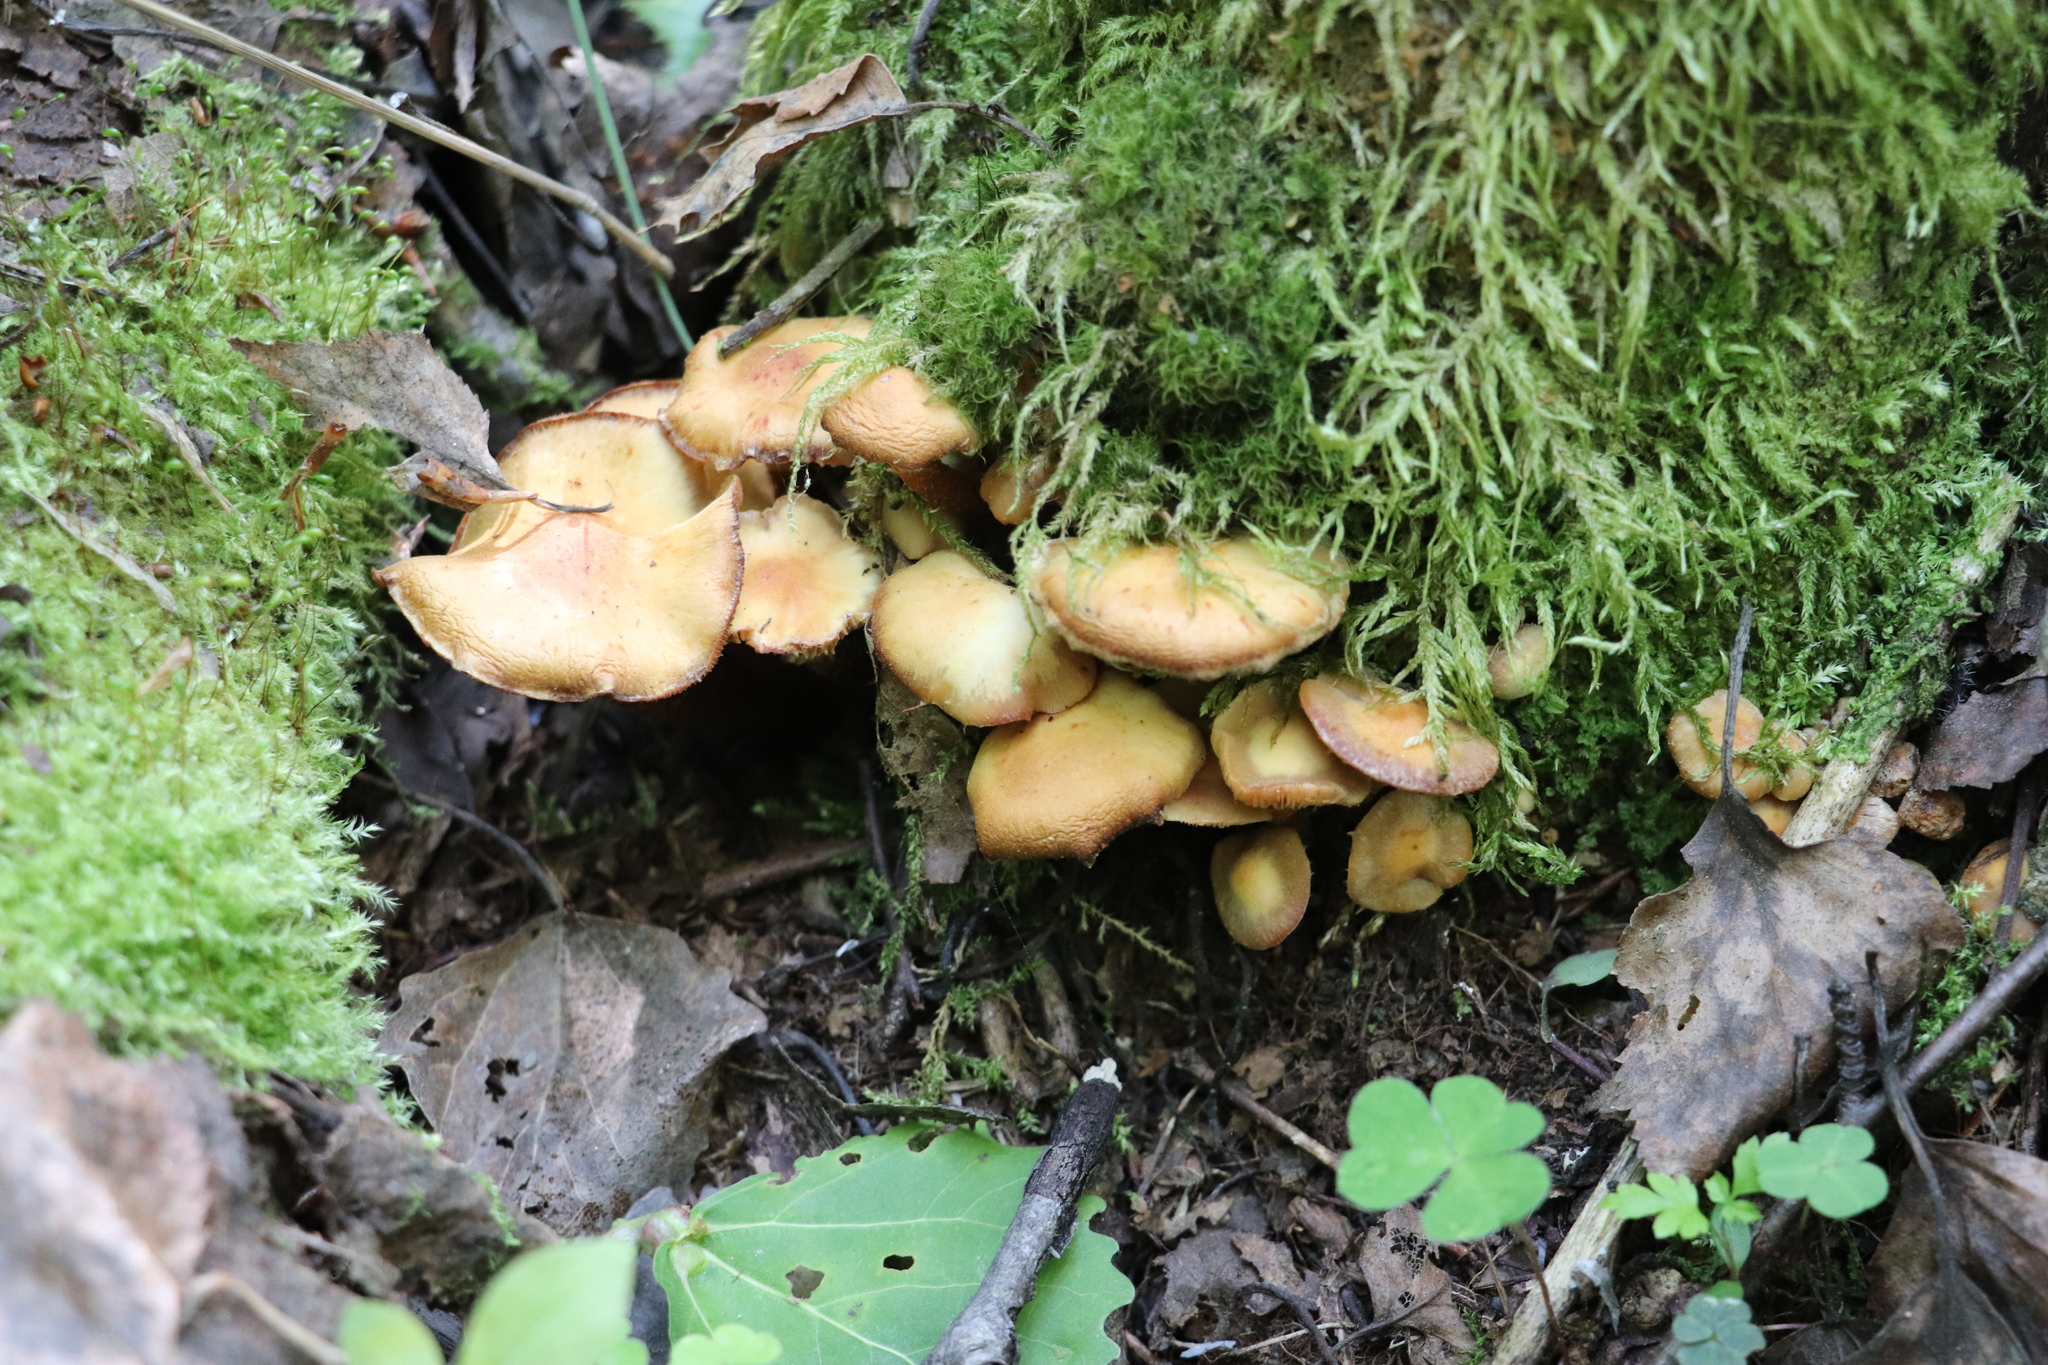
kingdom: Fungi
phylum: Basidiomycota
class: Agaricomycetes
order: Agaricales
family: Strophariaceae
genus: Kuehneromyces
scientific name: Kuehneromyces mutabilis
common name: Sheathed woodtuft
